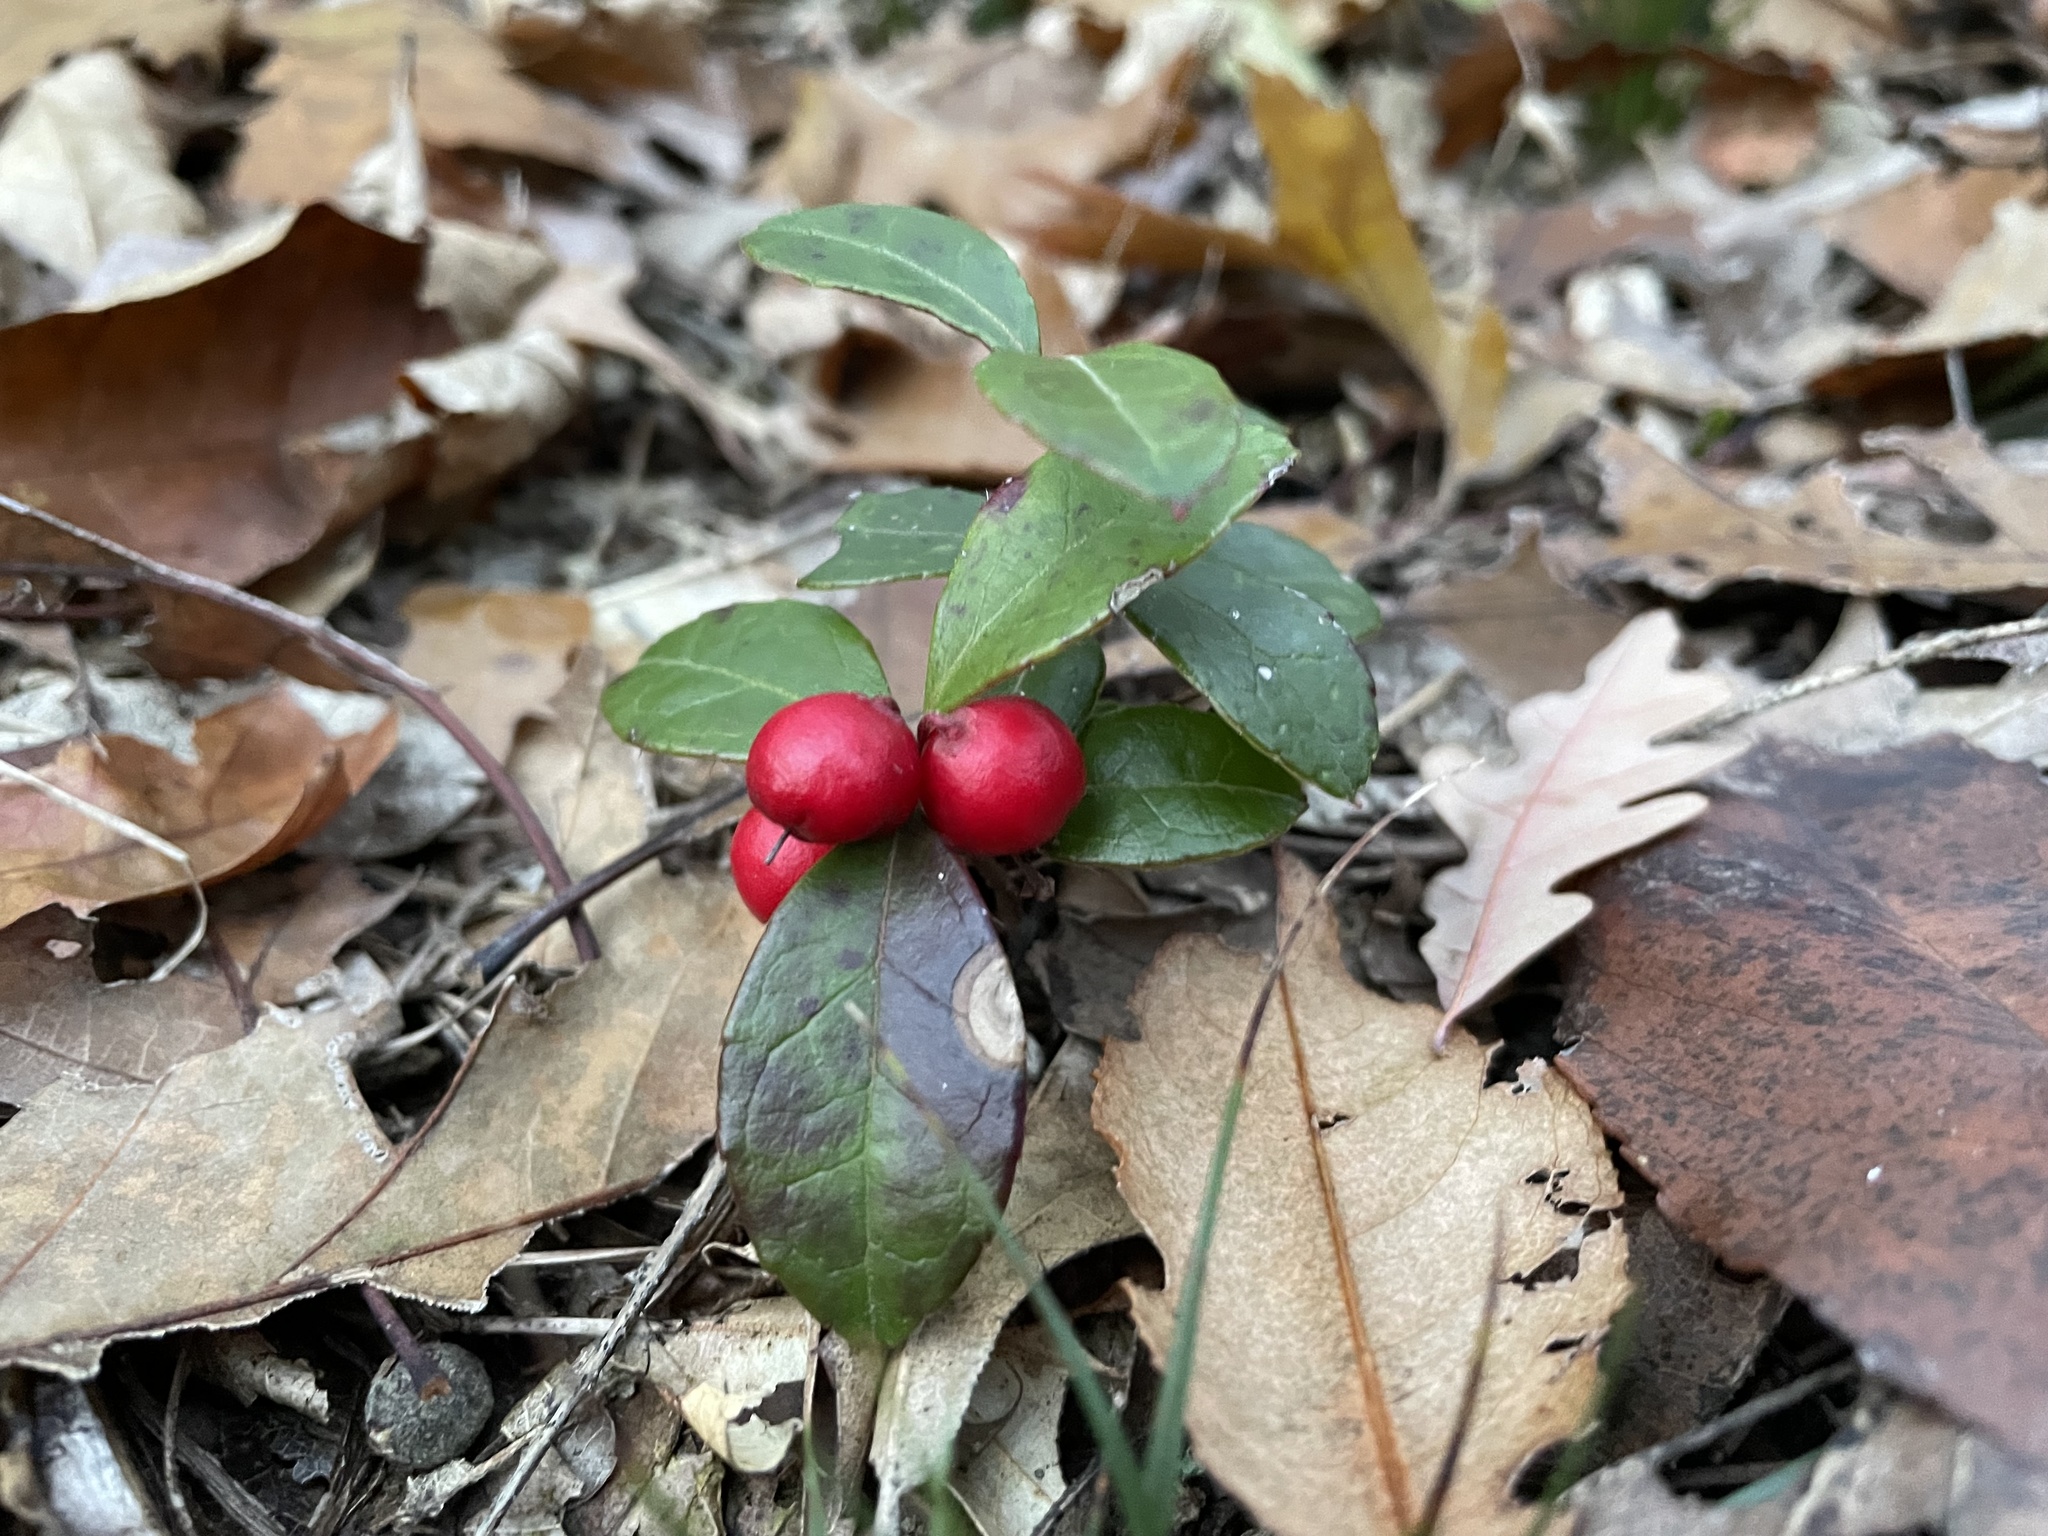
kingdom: Plantae
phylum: Tracheophyta
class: Magnoliopsida
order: Ericales
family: Ericaceae
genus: Gaultheria
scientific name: Gaultheria procumbens
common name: Checkerberry
